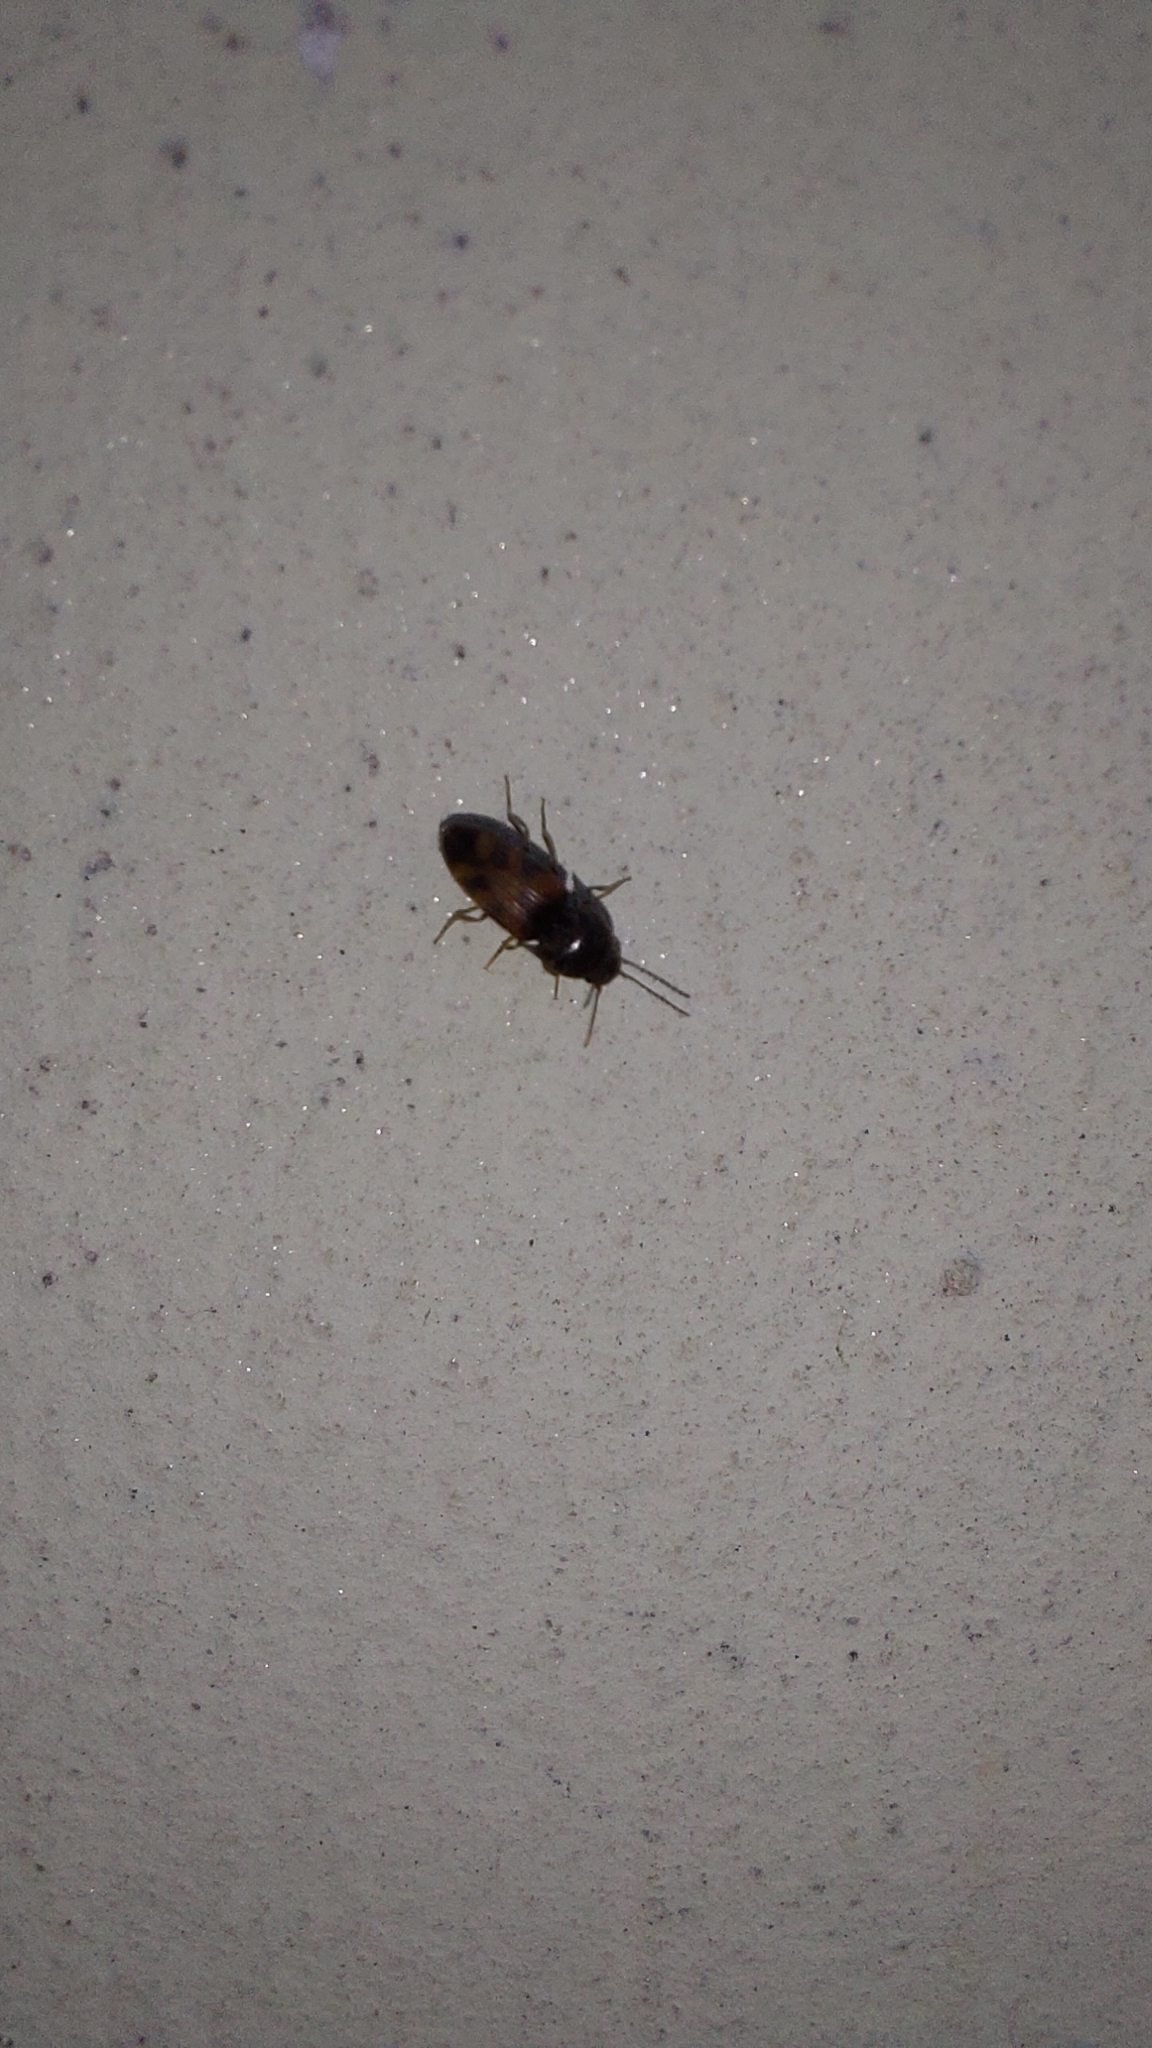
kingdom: Animalia
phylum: Arthropoda
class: Insecta
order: Coleoptera
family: Elateridae
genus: Drasterius
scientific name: Drasterius bimaculatus
